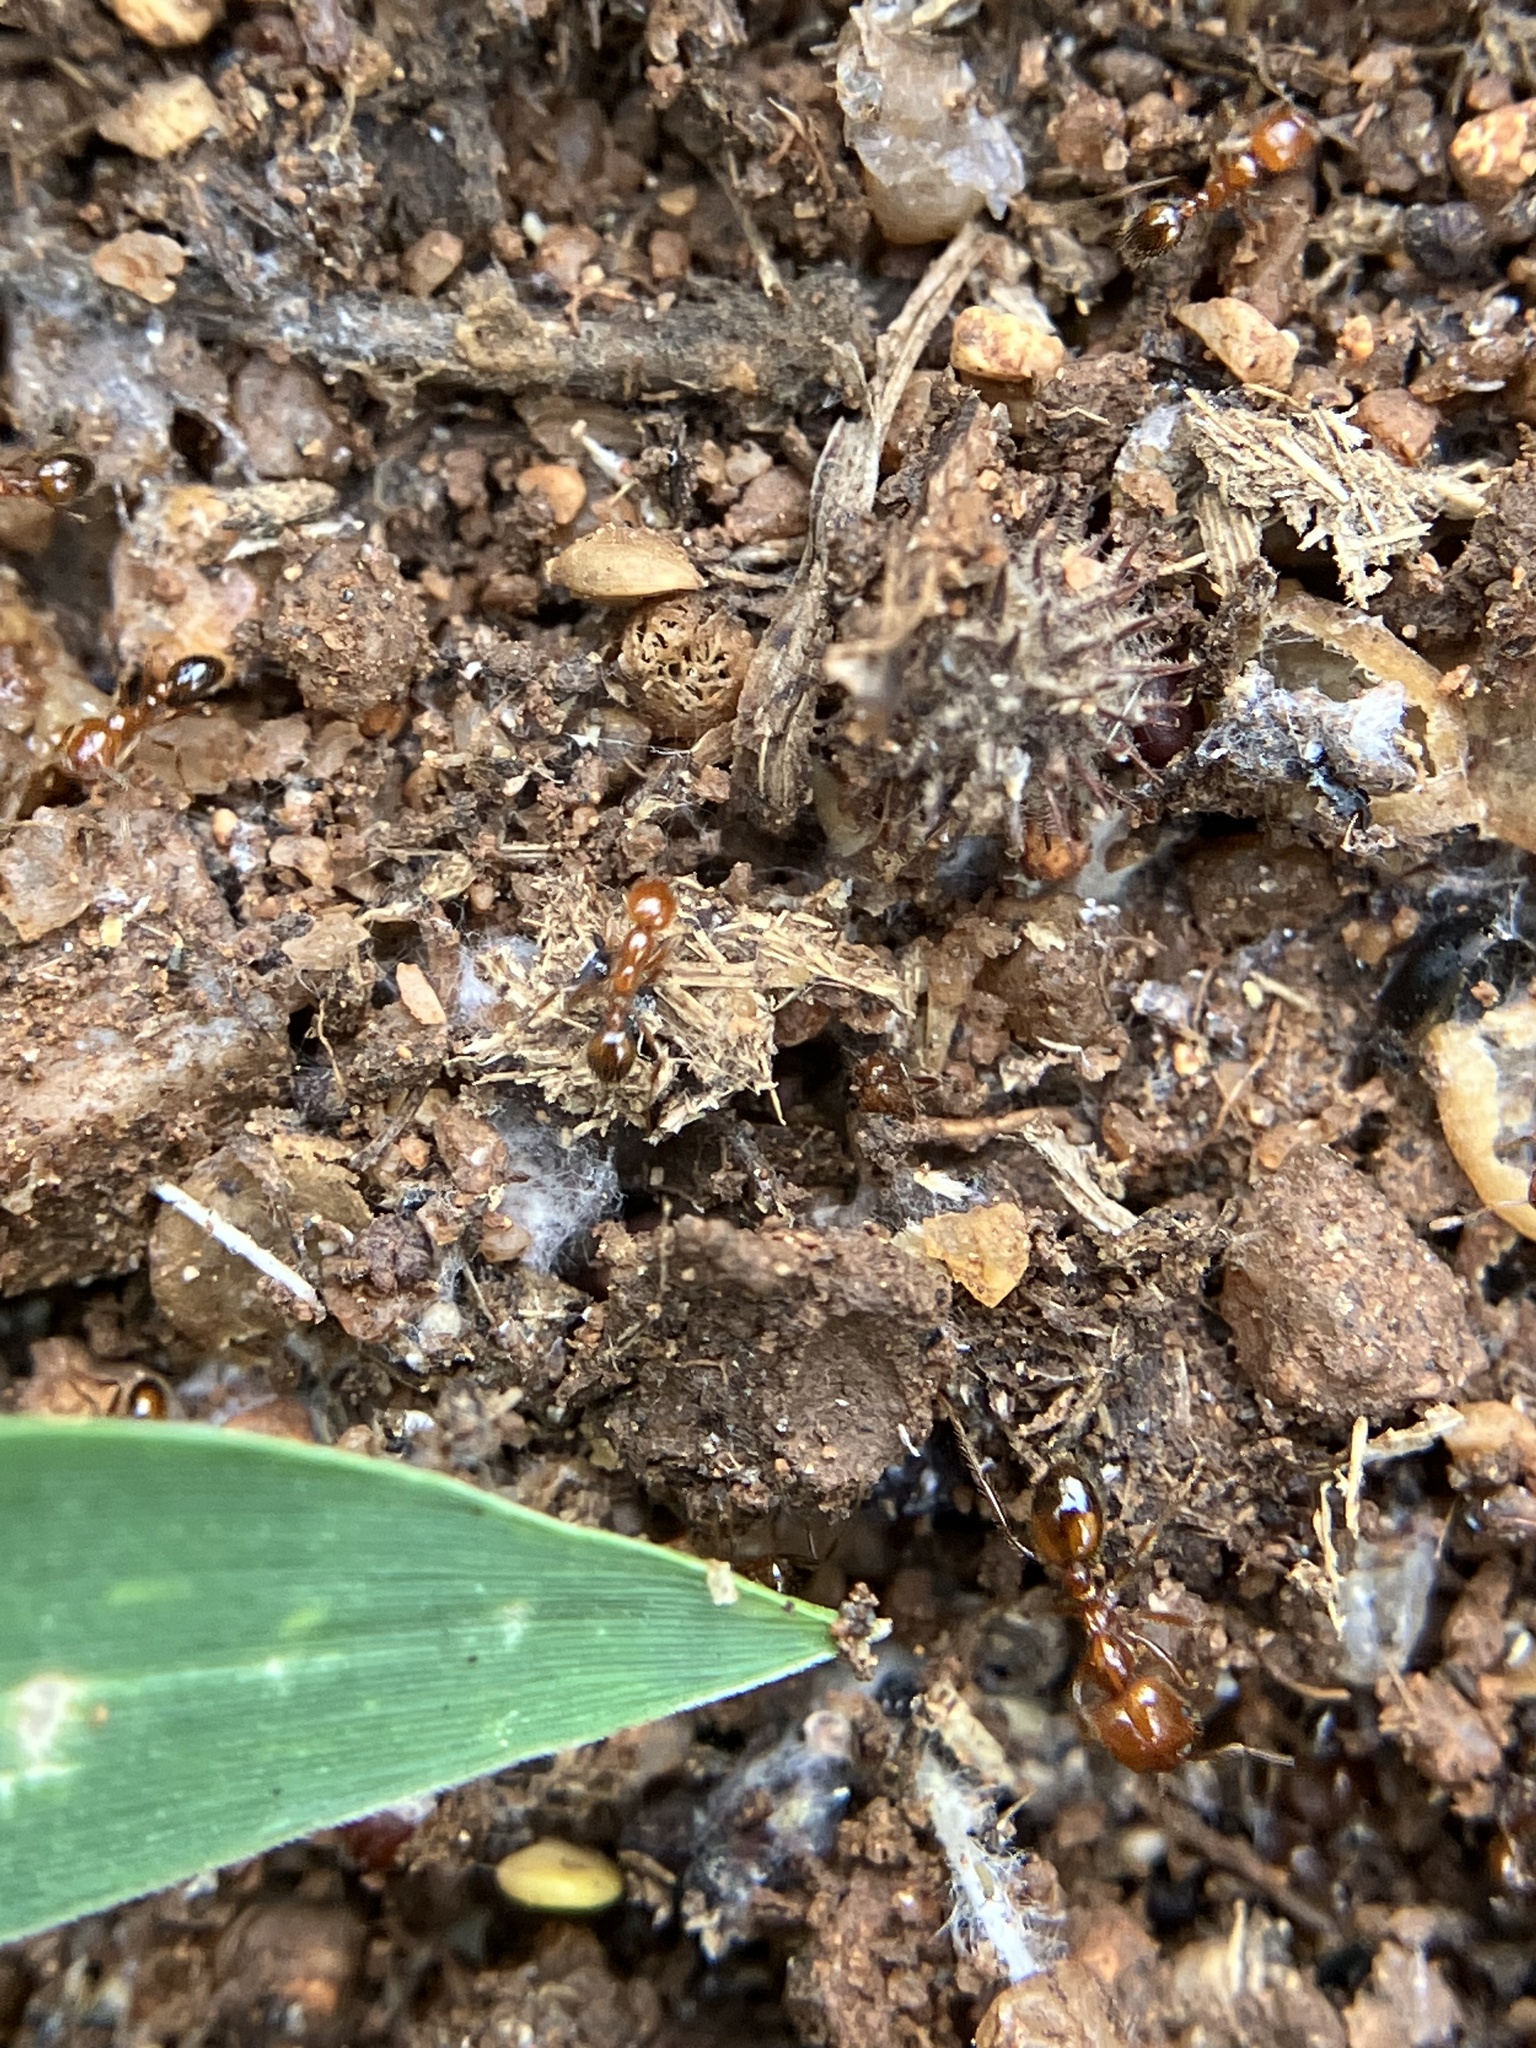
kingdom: Animalia
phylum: Arthropoda
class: Insecta
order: Hymenoptera
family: Formicidae
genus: Solenopsis
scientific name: Solenopsis geminata
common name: Tropical fire ant
